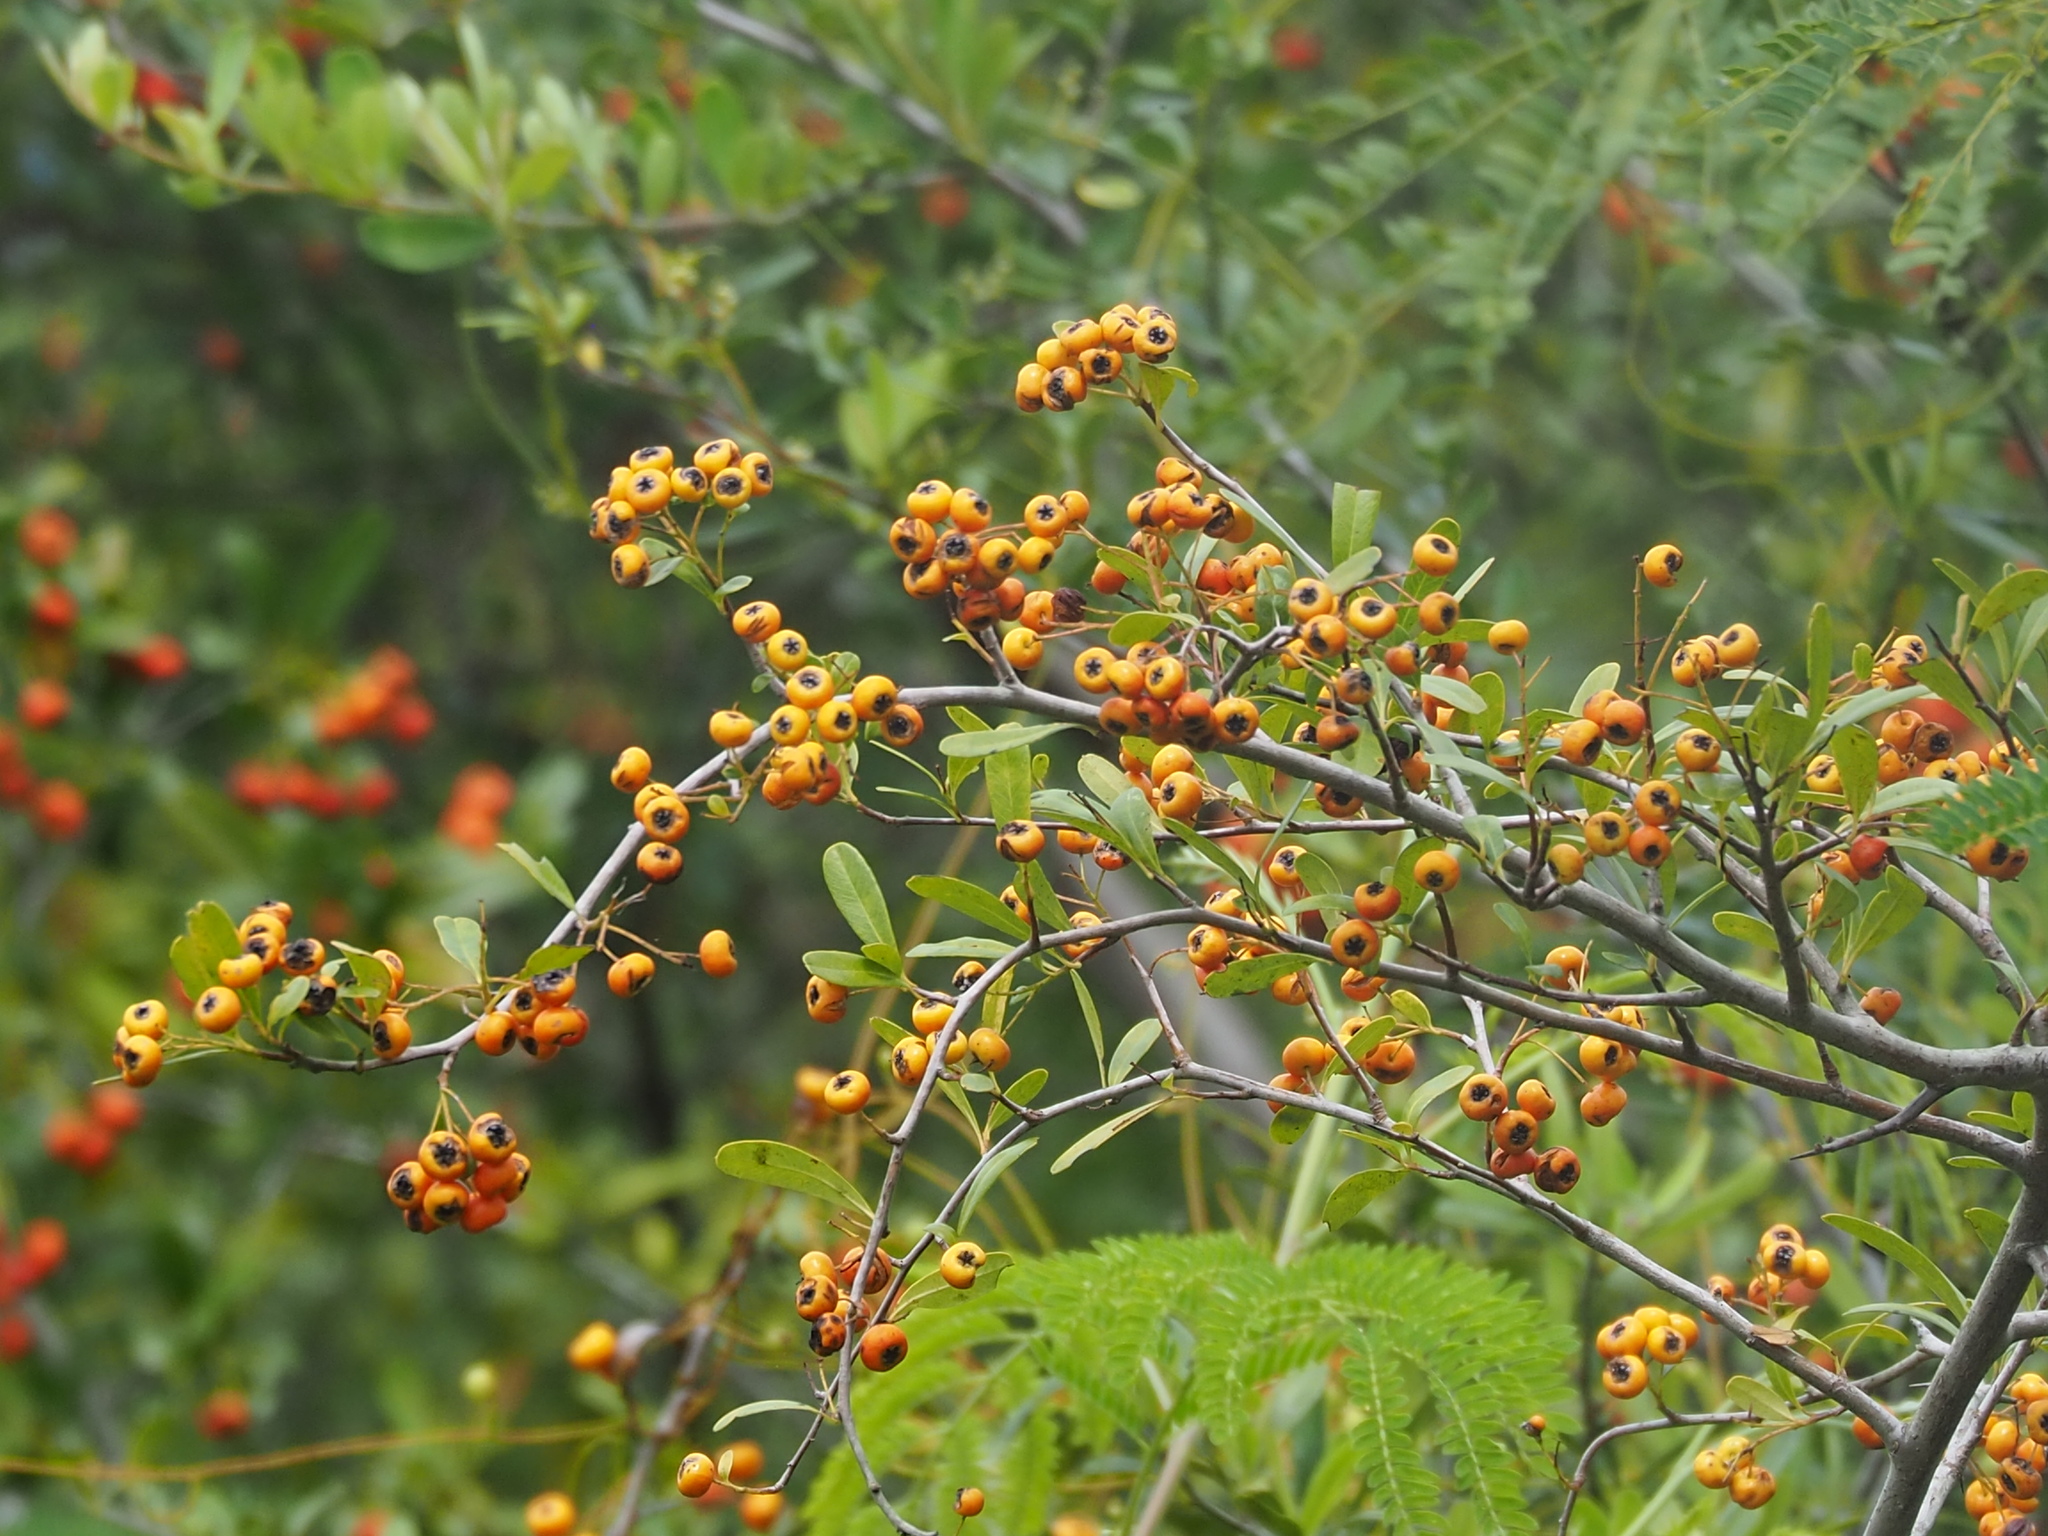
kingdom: Plantae
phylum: Tracheophyta
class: Magnoliopsida
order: Rosales
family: Rosaceae
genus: Pyracantha
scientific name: Pyracantha koidzumii
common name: Formosa firethorn
